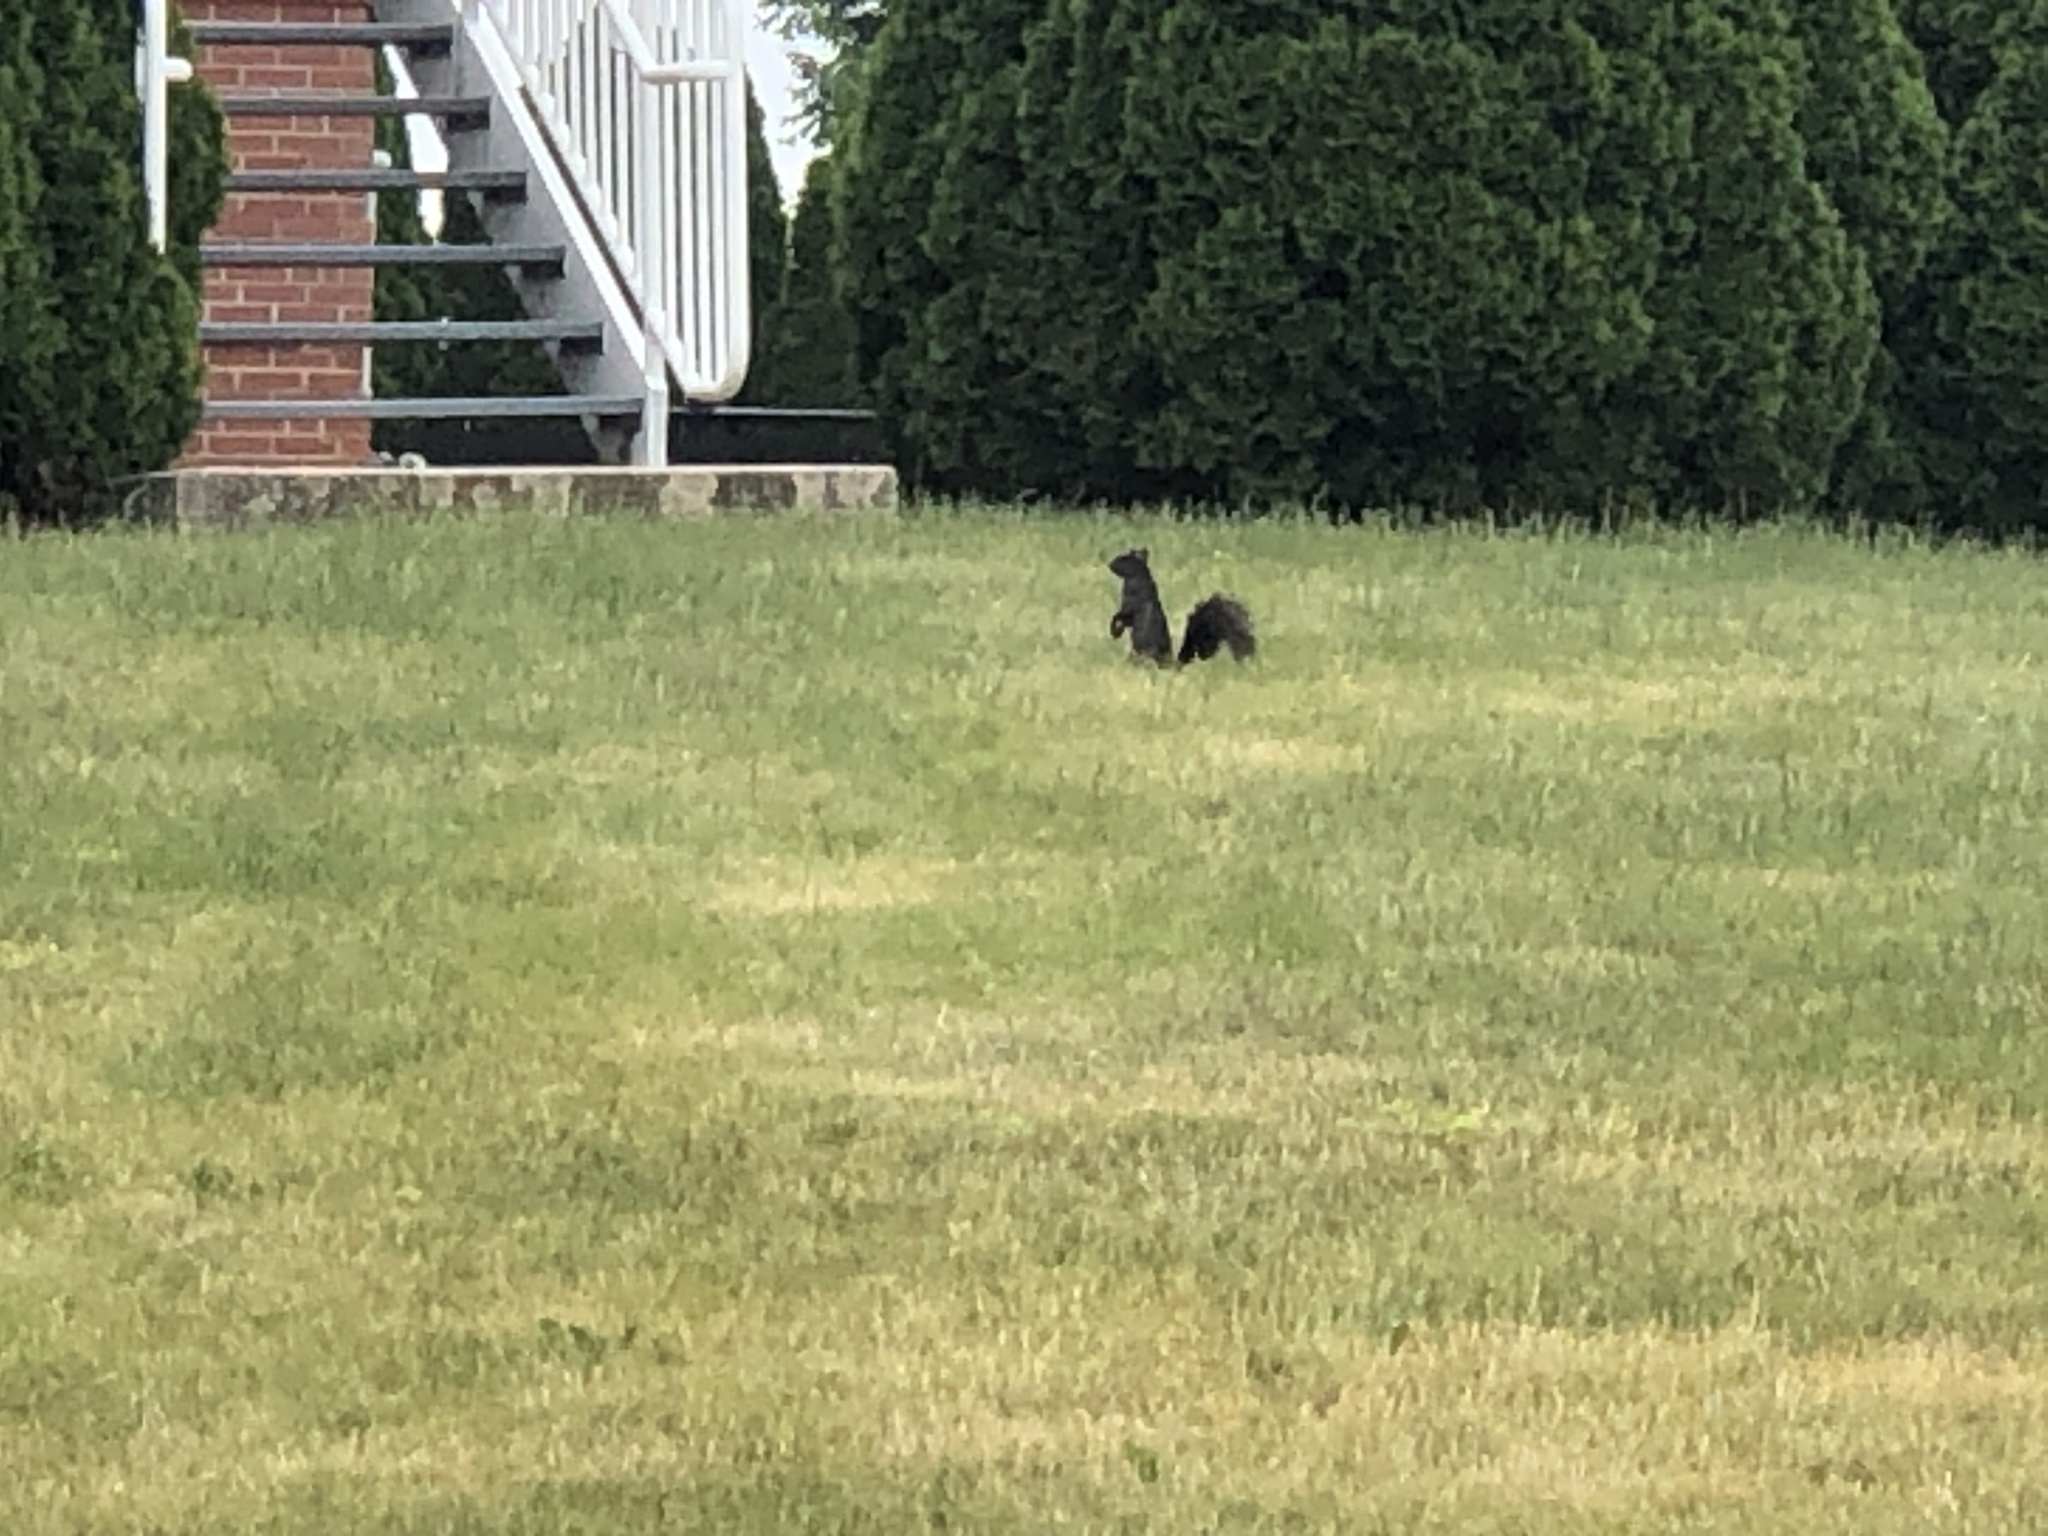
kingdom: Animalia
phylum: Chordata
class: Mammalia
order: Rodentia
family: Sciuridae
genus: Sciurus
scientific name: Sciurus carolinensis
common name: Eastern gray squirrel
